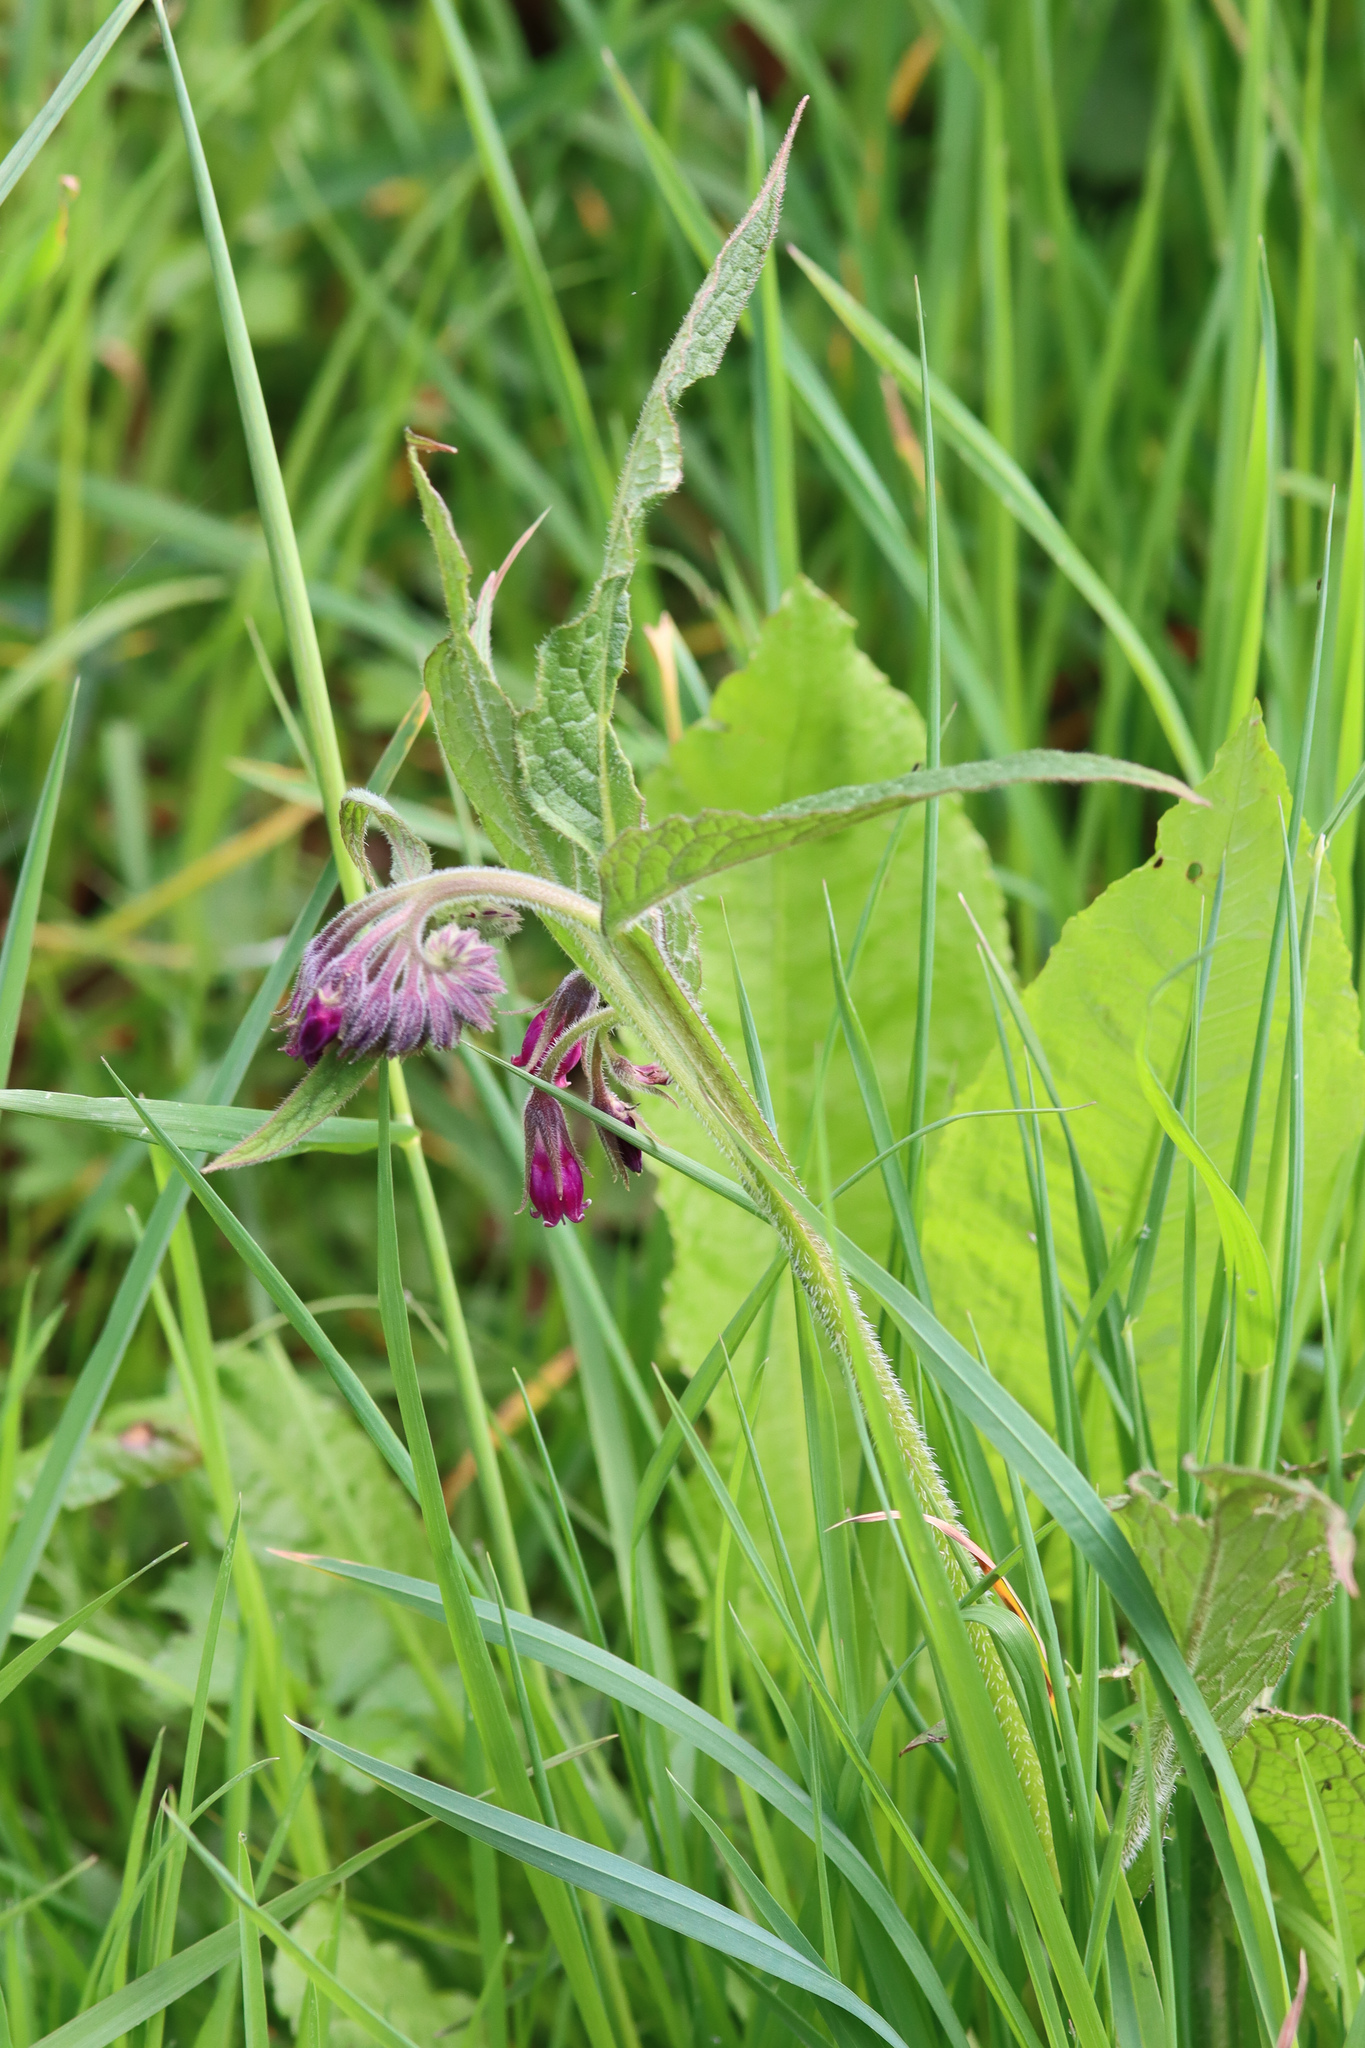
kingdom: Plantae
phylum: Tracheophyta
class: Magnoliopsida
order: Boraginales
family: Boraginaceae
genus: Symphytum
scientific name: Symphytum officinale
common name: Common comfrey
